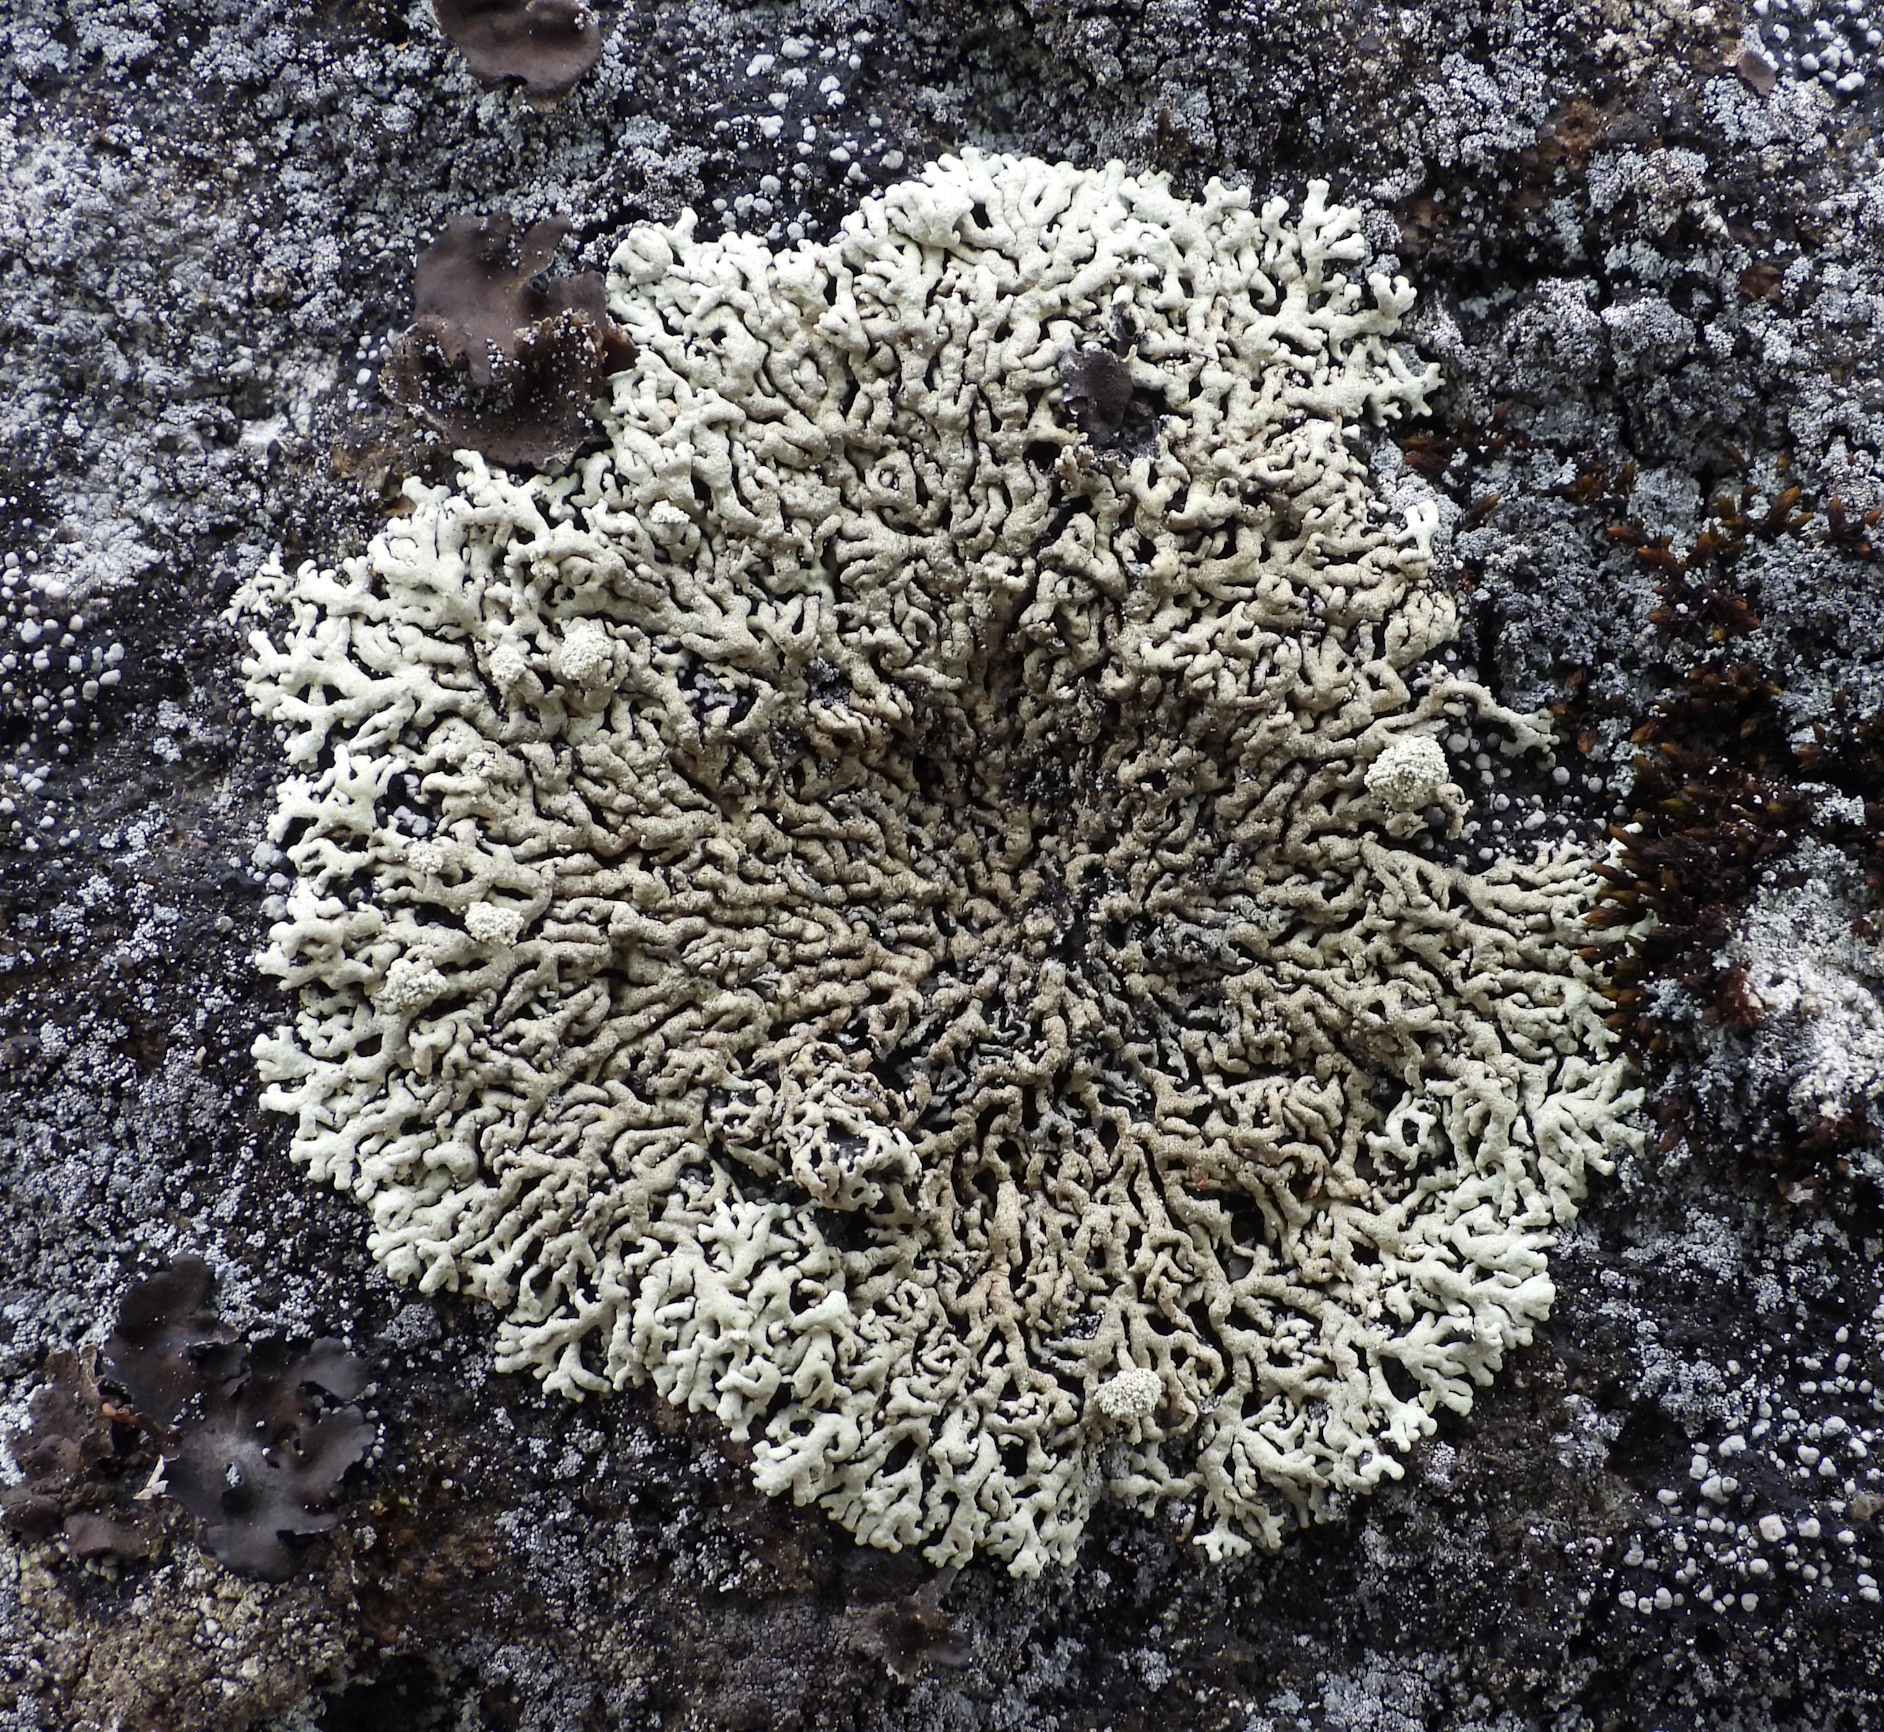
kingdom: Fungi
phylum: Ascomycota
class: Lecanoromycetes
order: Lecanorales
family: Parmeliaceae
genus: Arctoparmelia
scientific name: Arctoparmelia incurva
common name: Bent ring lichen
